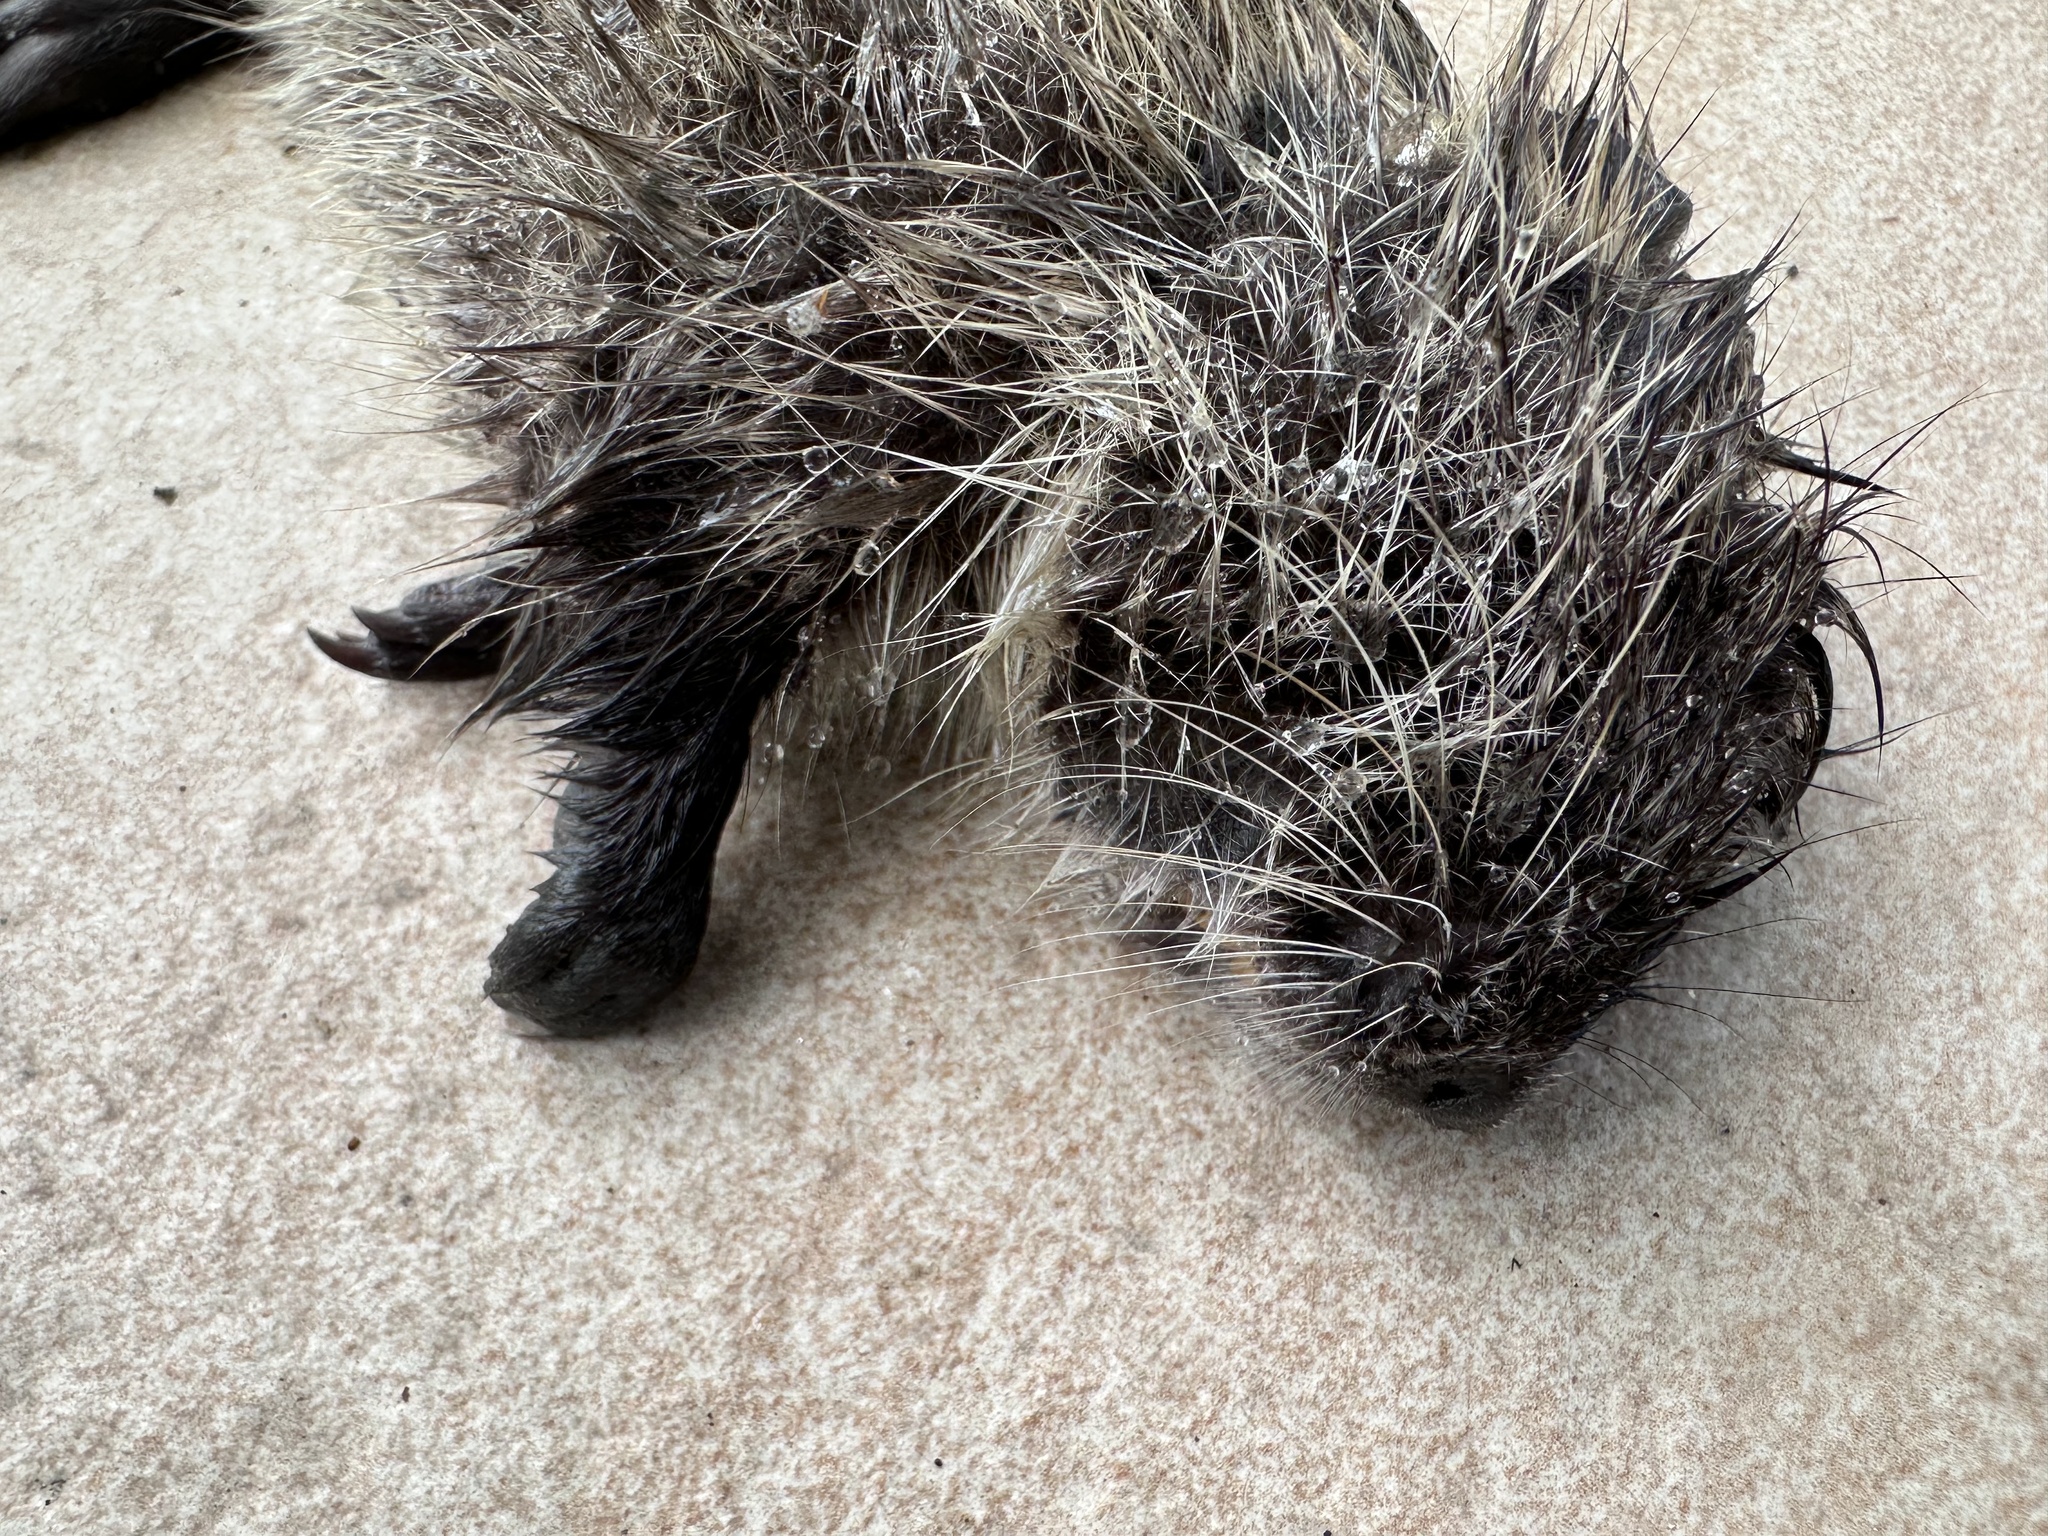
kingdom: Animalia
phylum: Chordata
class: Mammalia
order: Rodentia
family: Myocastoridae
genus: Myocastor
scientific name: Myocastor coypus
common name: Coypu
